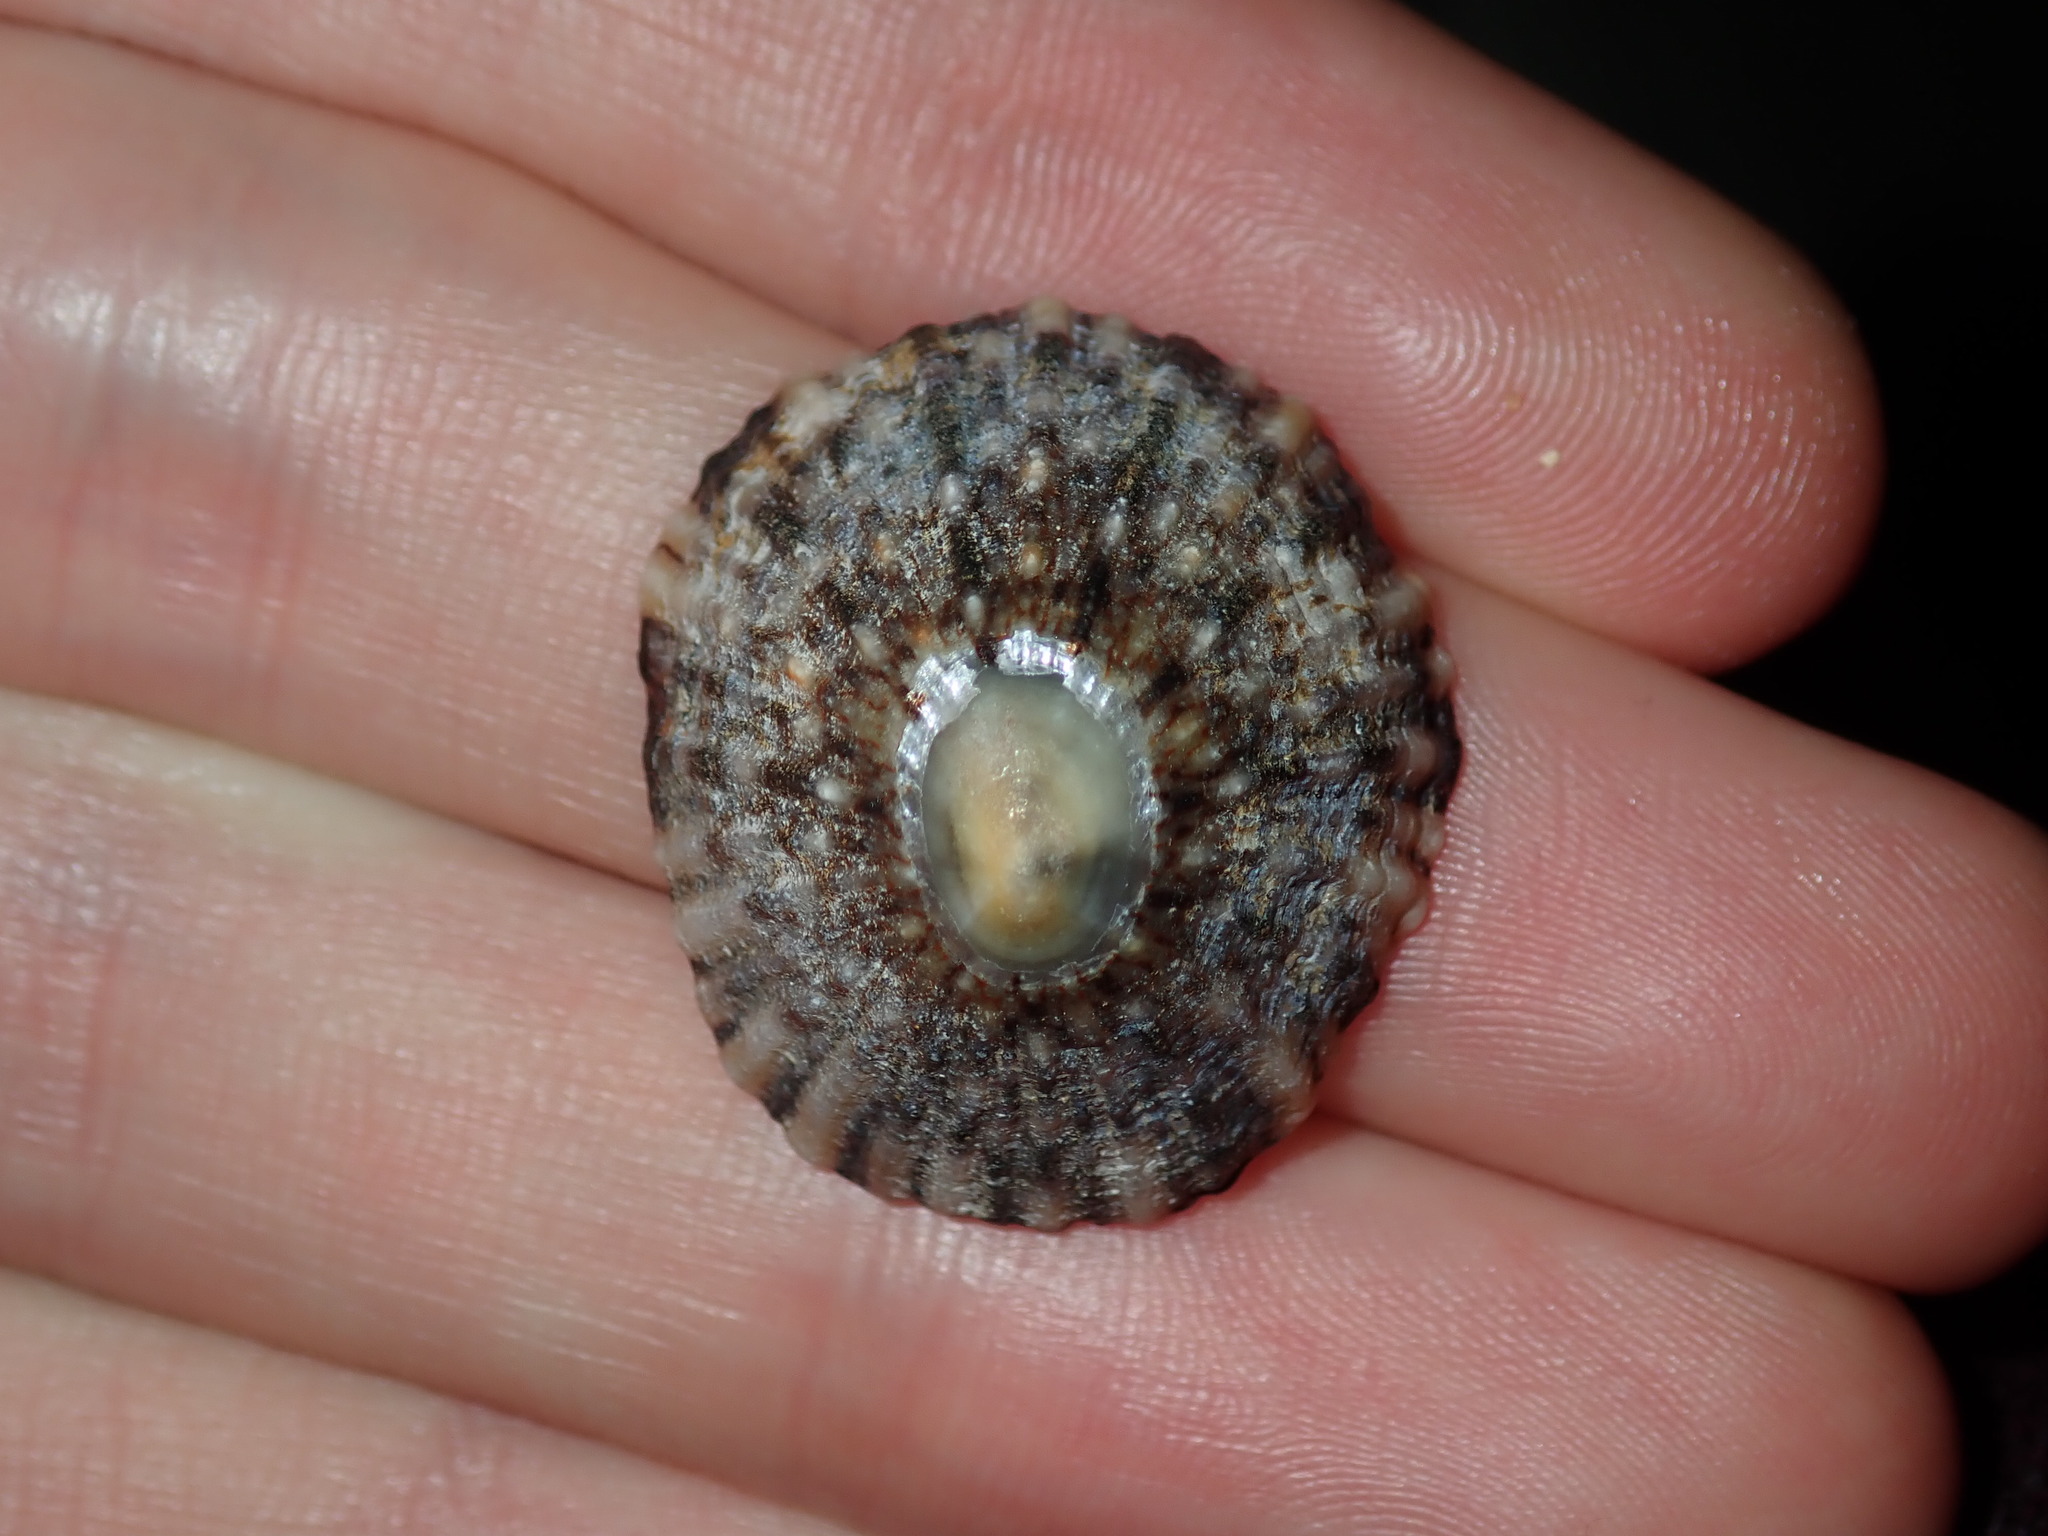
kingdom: Animalia
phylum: Mollusca
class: Gastropoda
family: Nacellidae
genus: Cellana
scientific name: Cellana tramoserica
